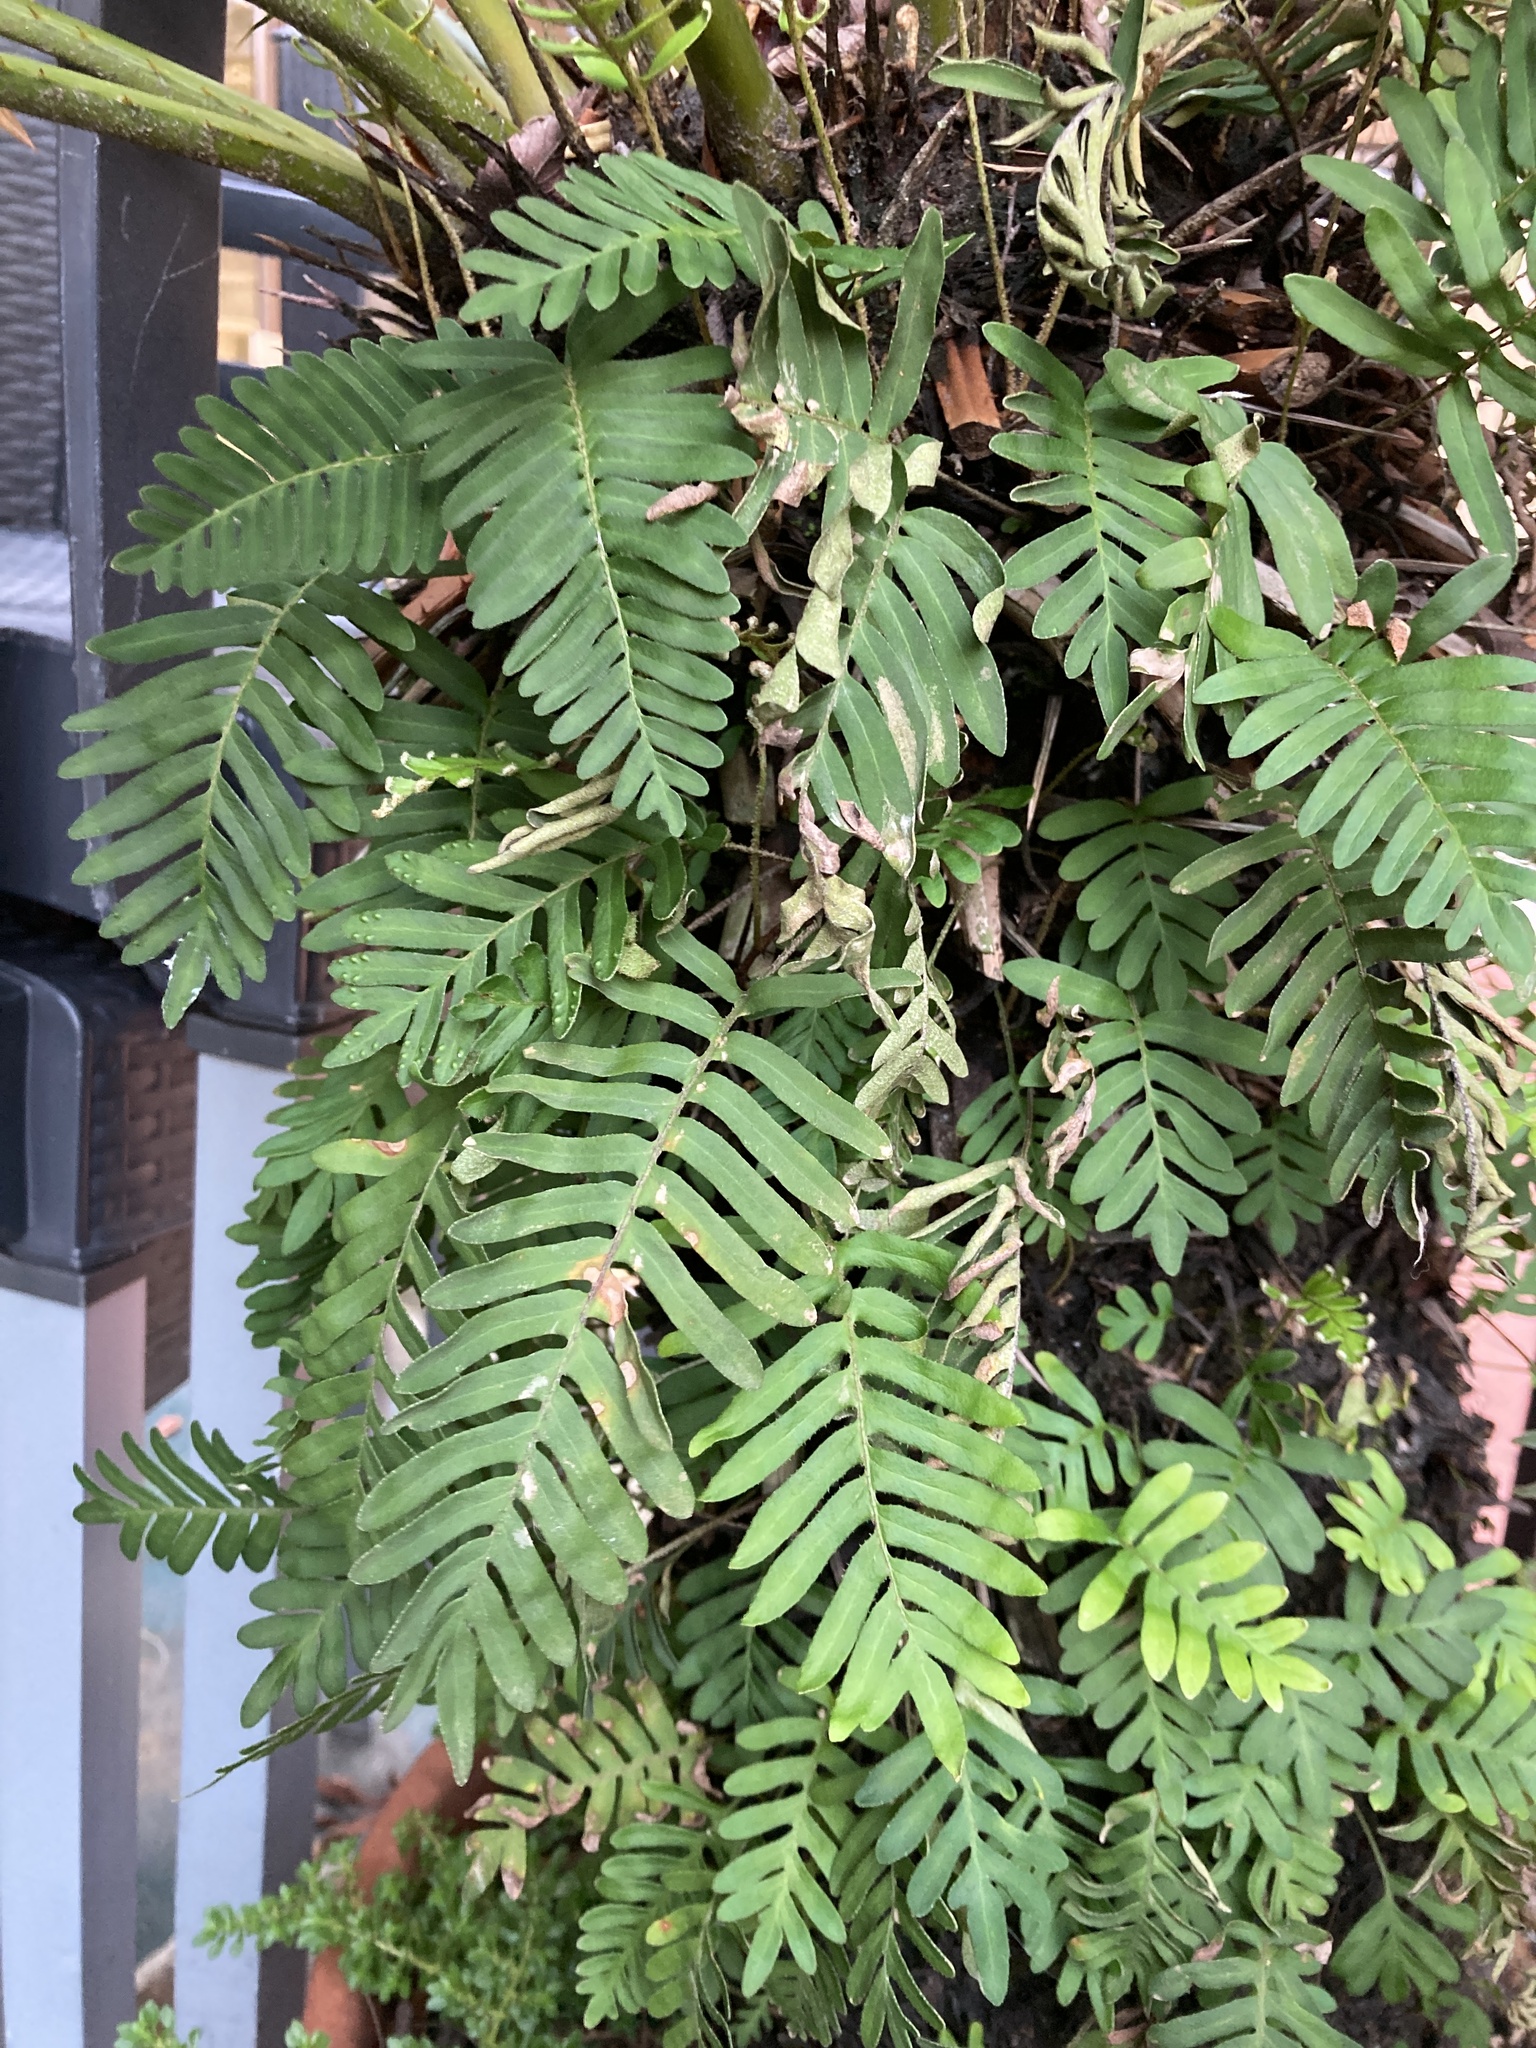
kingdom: Plantae
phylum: Tracheophyta
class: Polypodiopsida
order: Polypodiales
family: Polypodiaceae
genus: Pleopeltis
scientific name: Pleopeltis michauxiana
